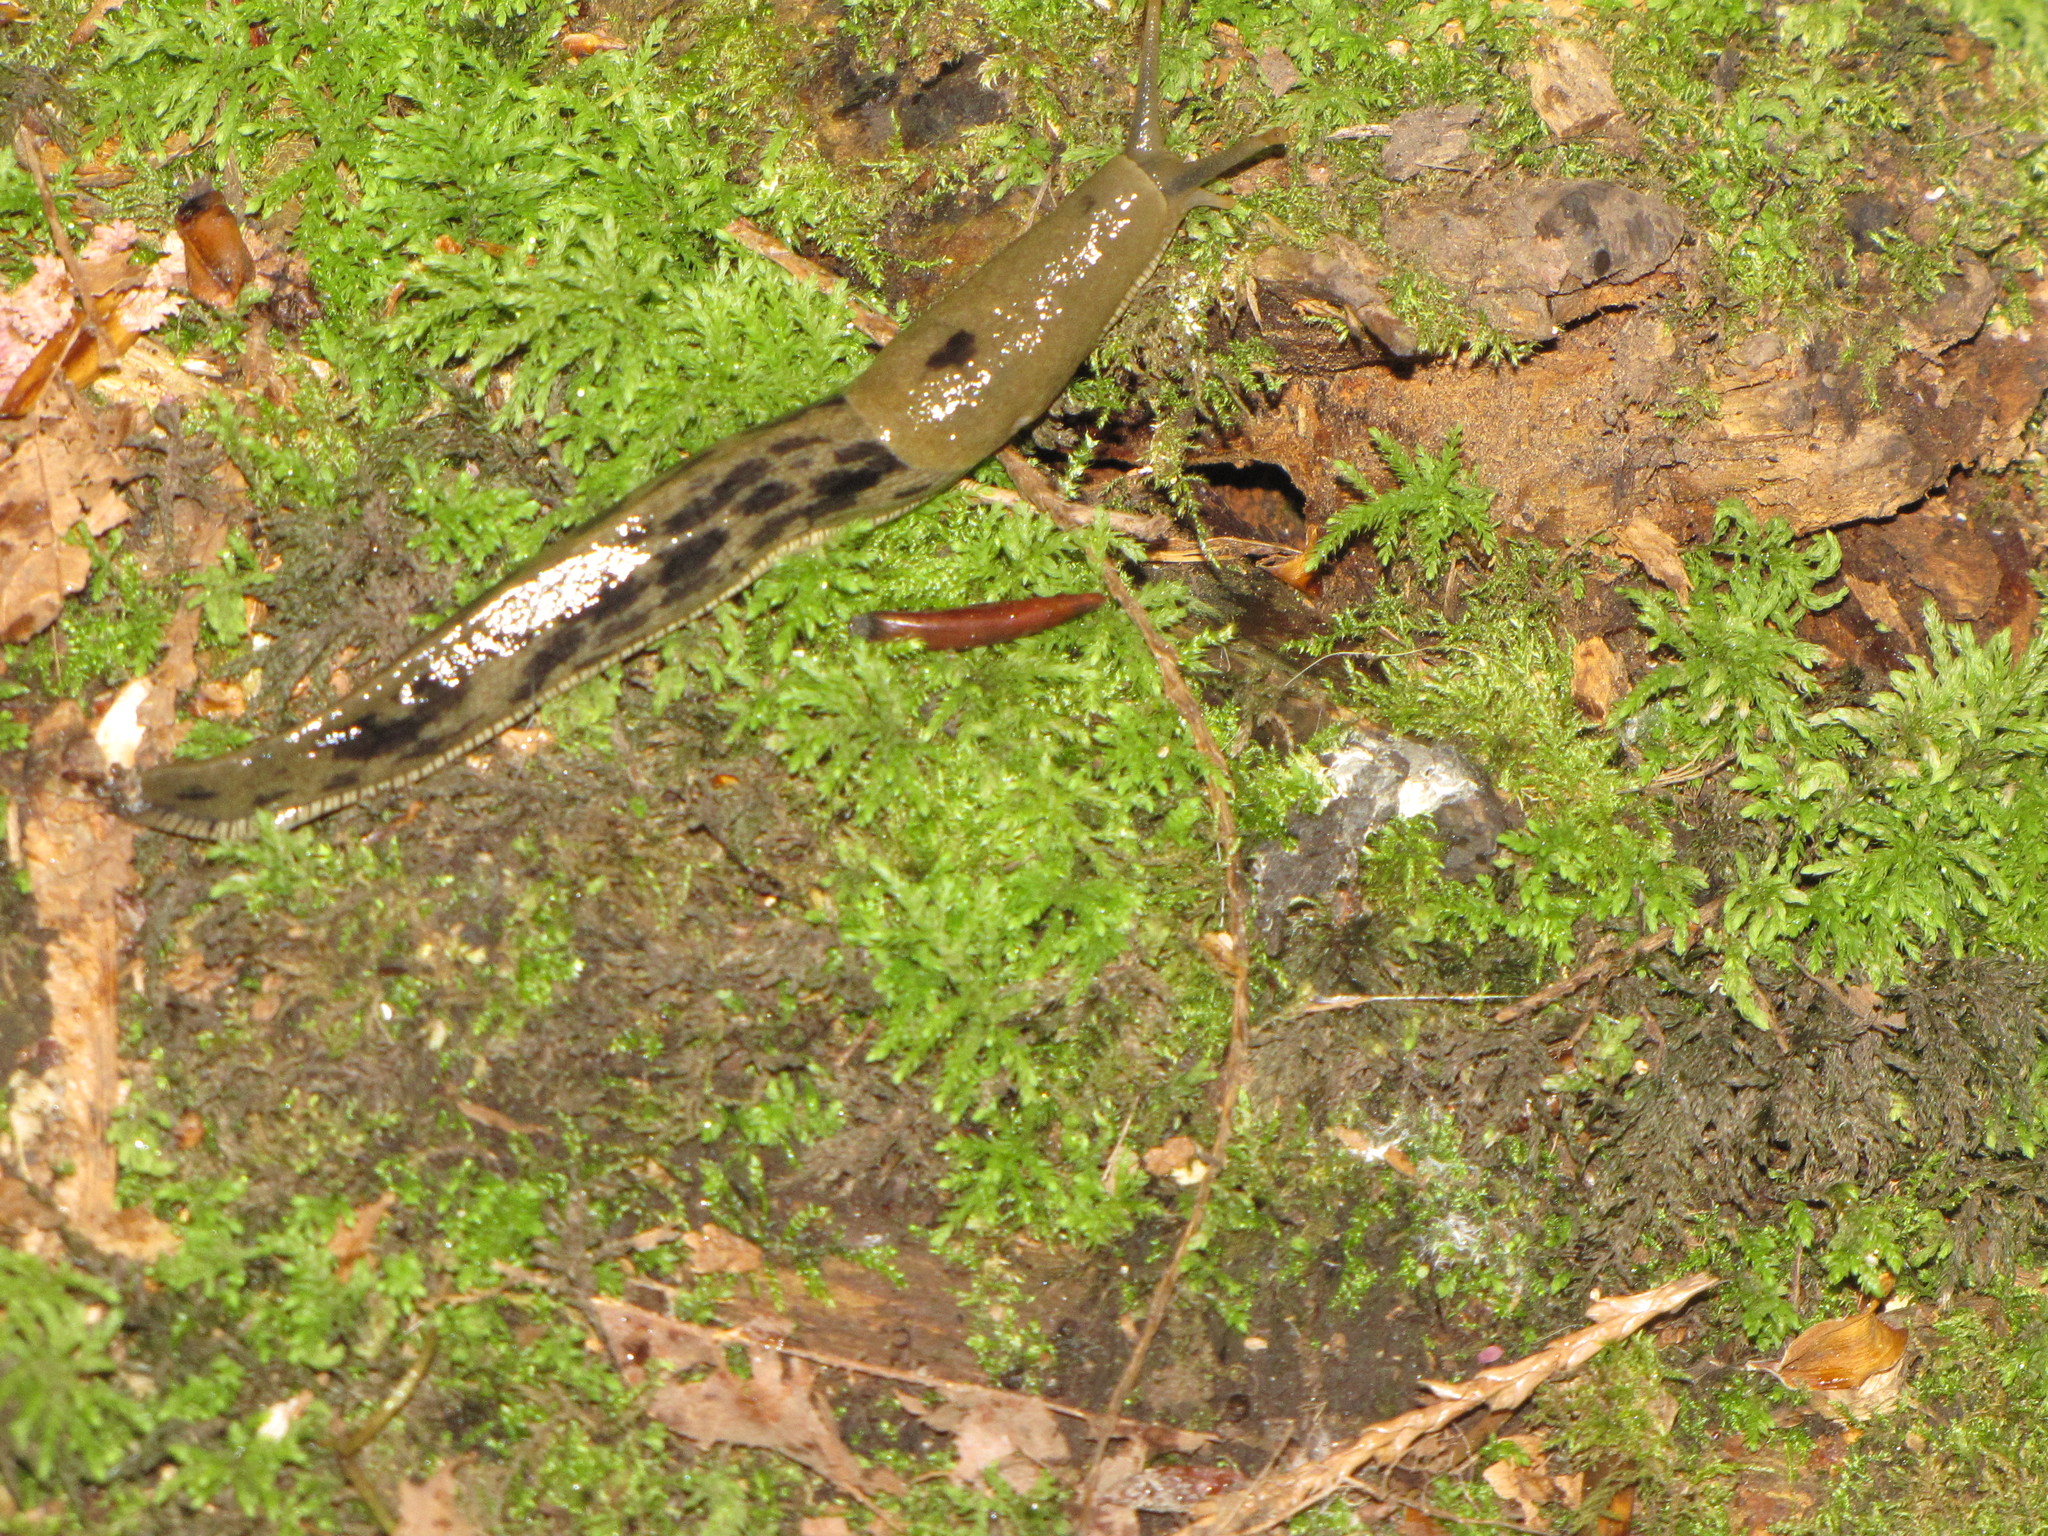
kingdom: Animalia
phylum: Mollusca
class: Gastropoda
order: Stylommatophora
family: Ariolimacidae
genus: Ariolimax
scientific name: Ariolimax columbianus
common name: Pacific banana slug
